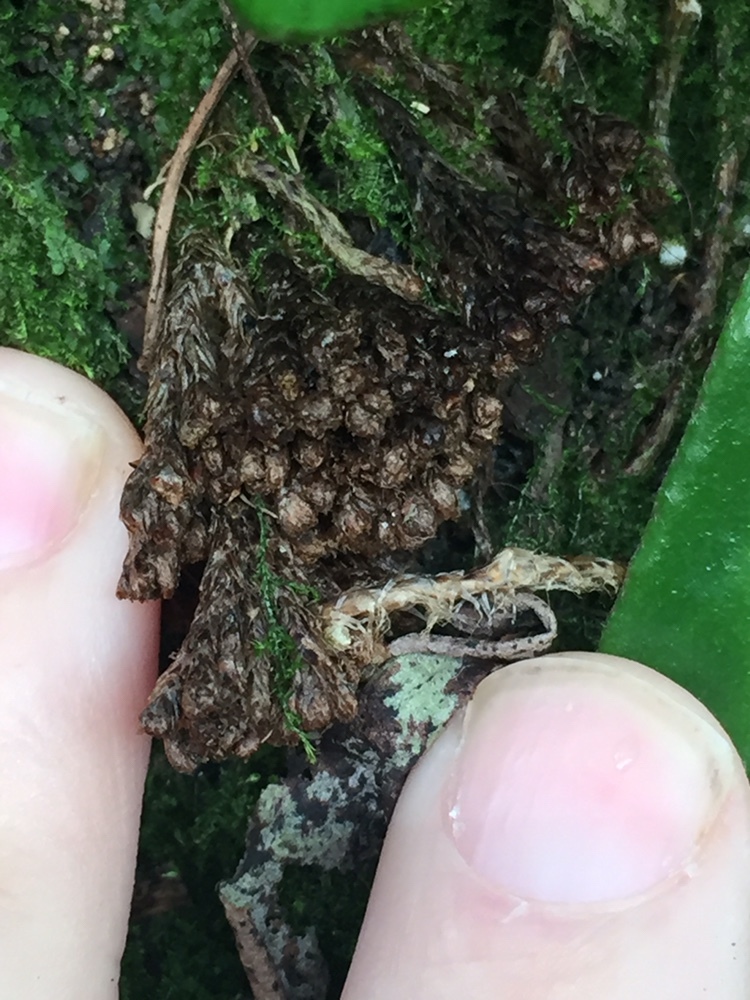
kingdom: Animalia
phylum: Arthropoda
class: Arachnida
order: Trombidiformes
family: Eriophyidae
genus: Acerimina
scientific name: Acerimina pyrrosiae
